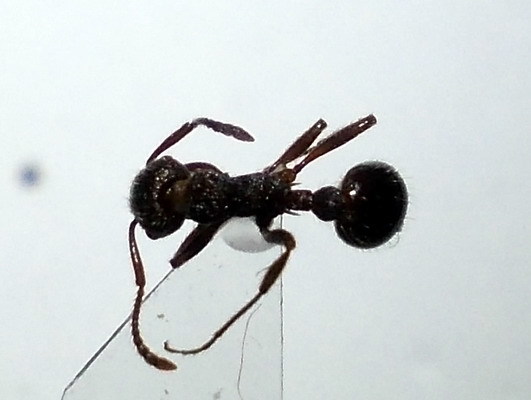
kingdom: Animalia
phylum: Arthropoda
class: Insecta
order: Hymenoptera
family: Formicidae
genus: Myrmica
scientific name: Myrmica bergi
